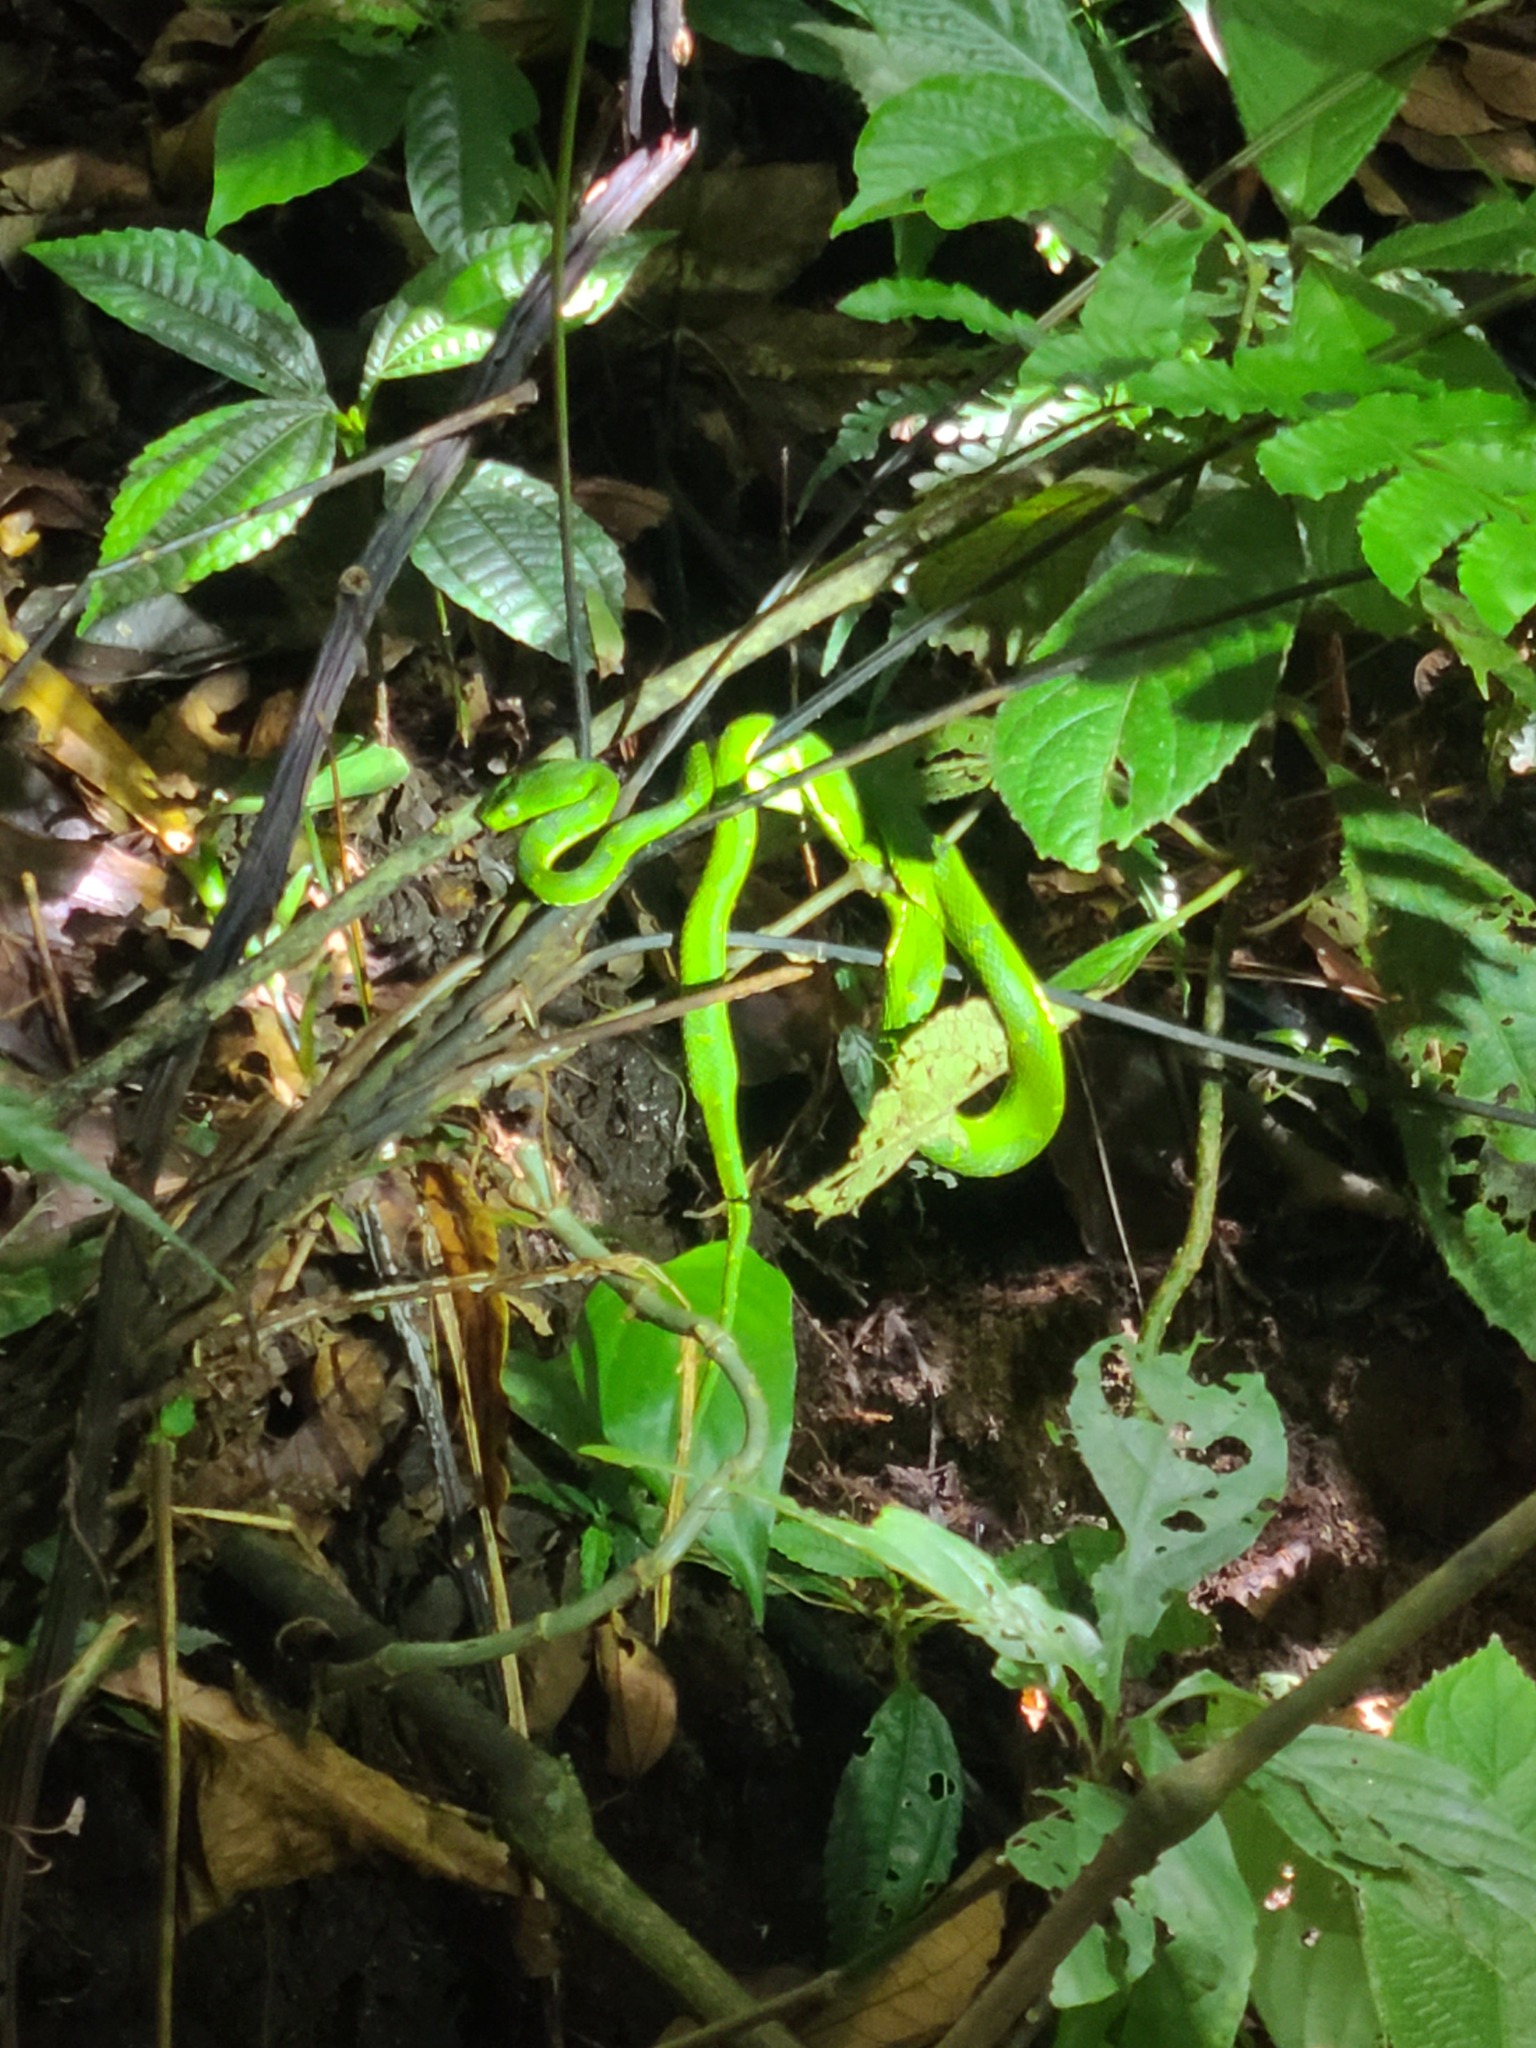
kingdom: Animalia
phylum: Chordata
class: Squamata
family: Viperidae
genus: Bothriechis
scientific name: Bothriechis lateralis
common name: Coffee palm viper
